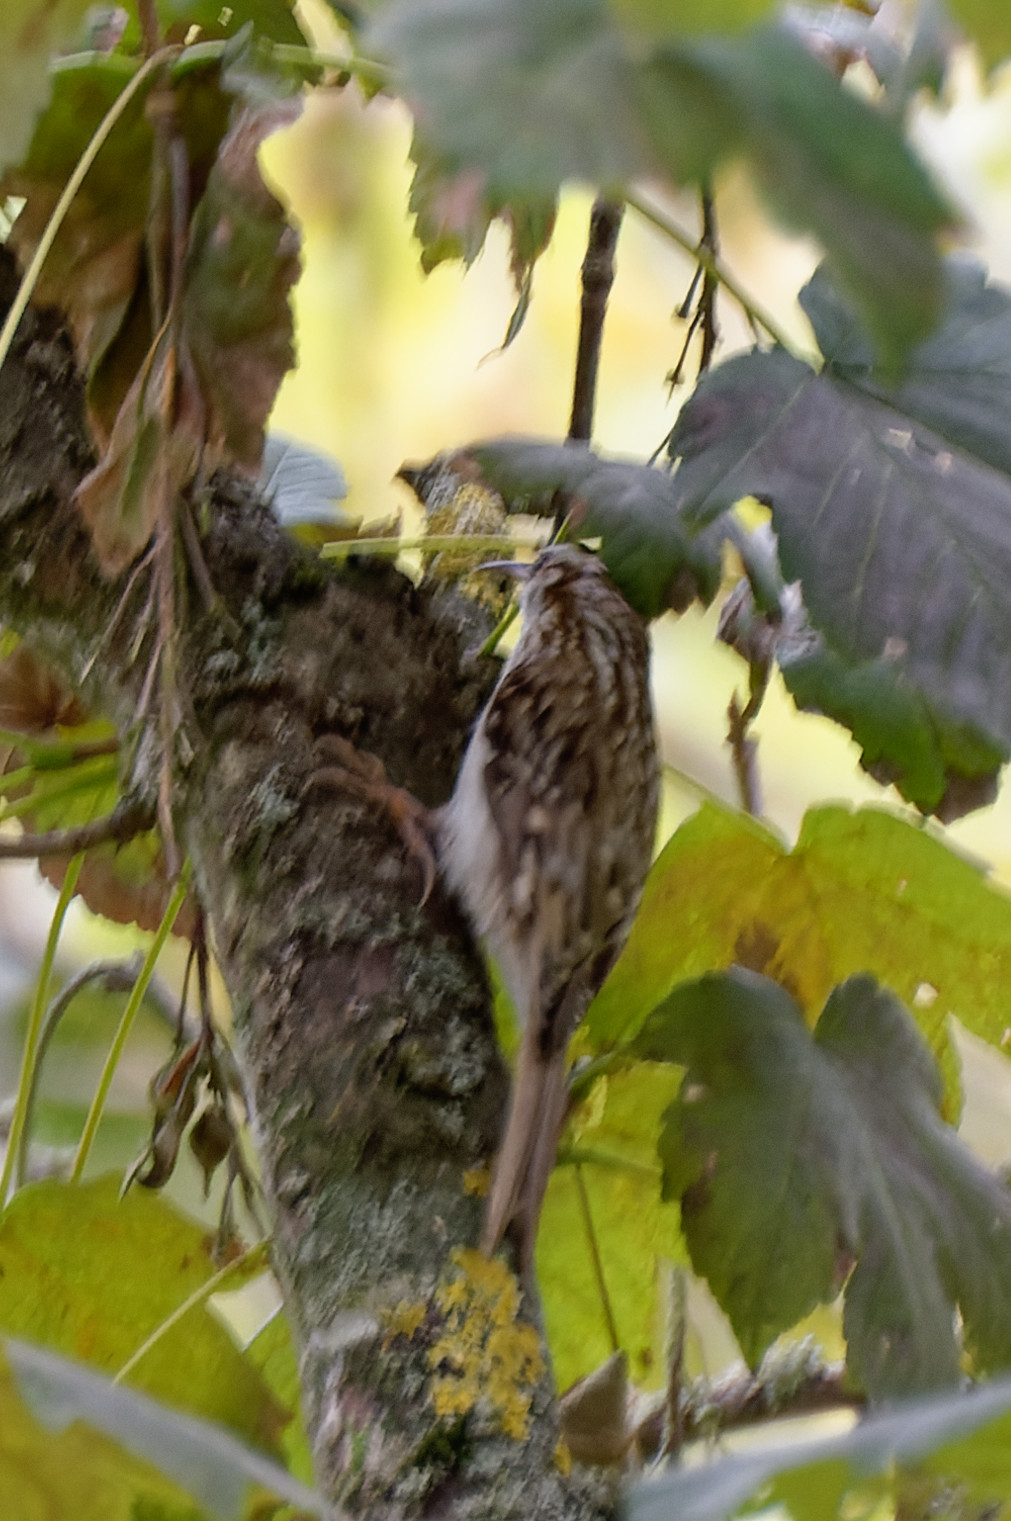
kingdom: Animalia
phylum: Chordata
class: Aves
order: Passeriformes
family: Certhiidae
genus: Certhia
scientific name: Certhia
